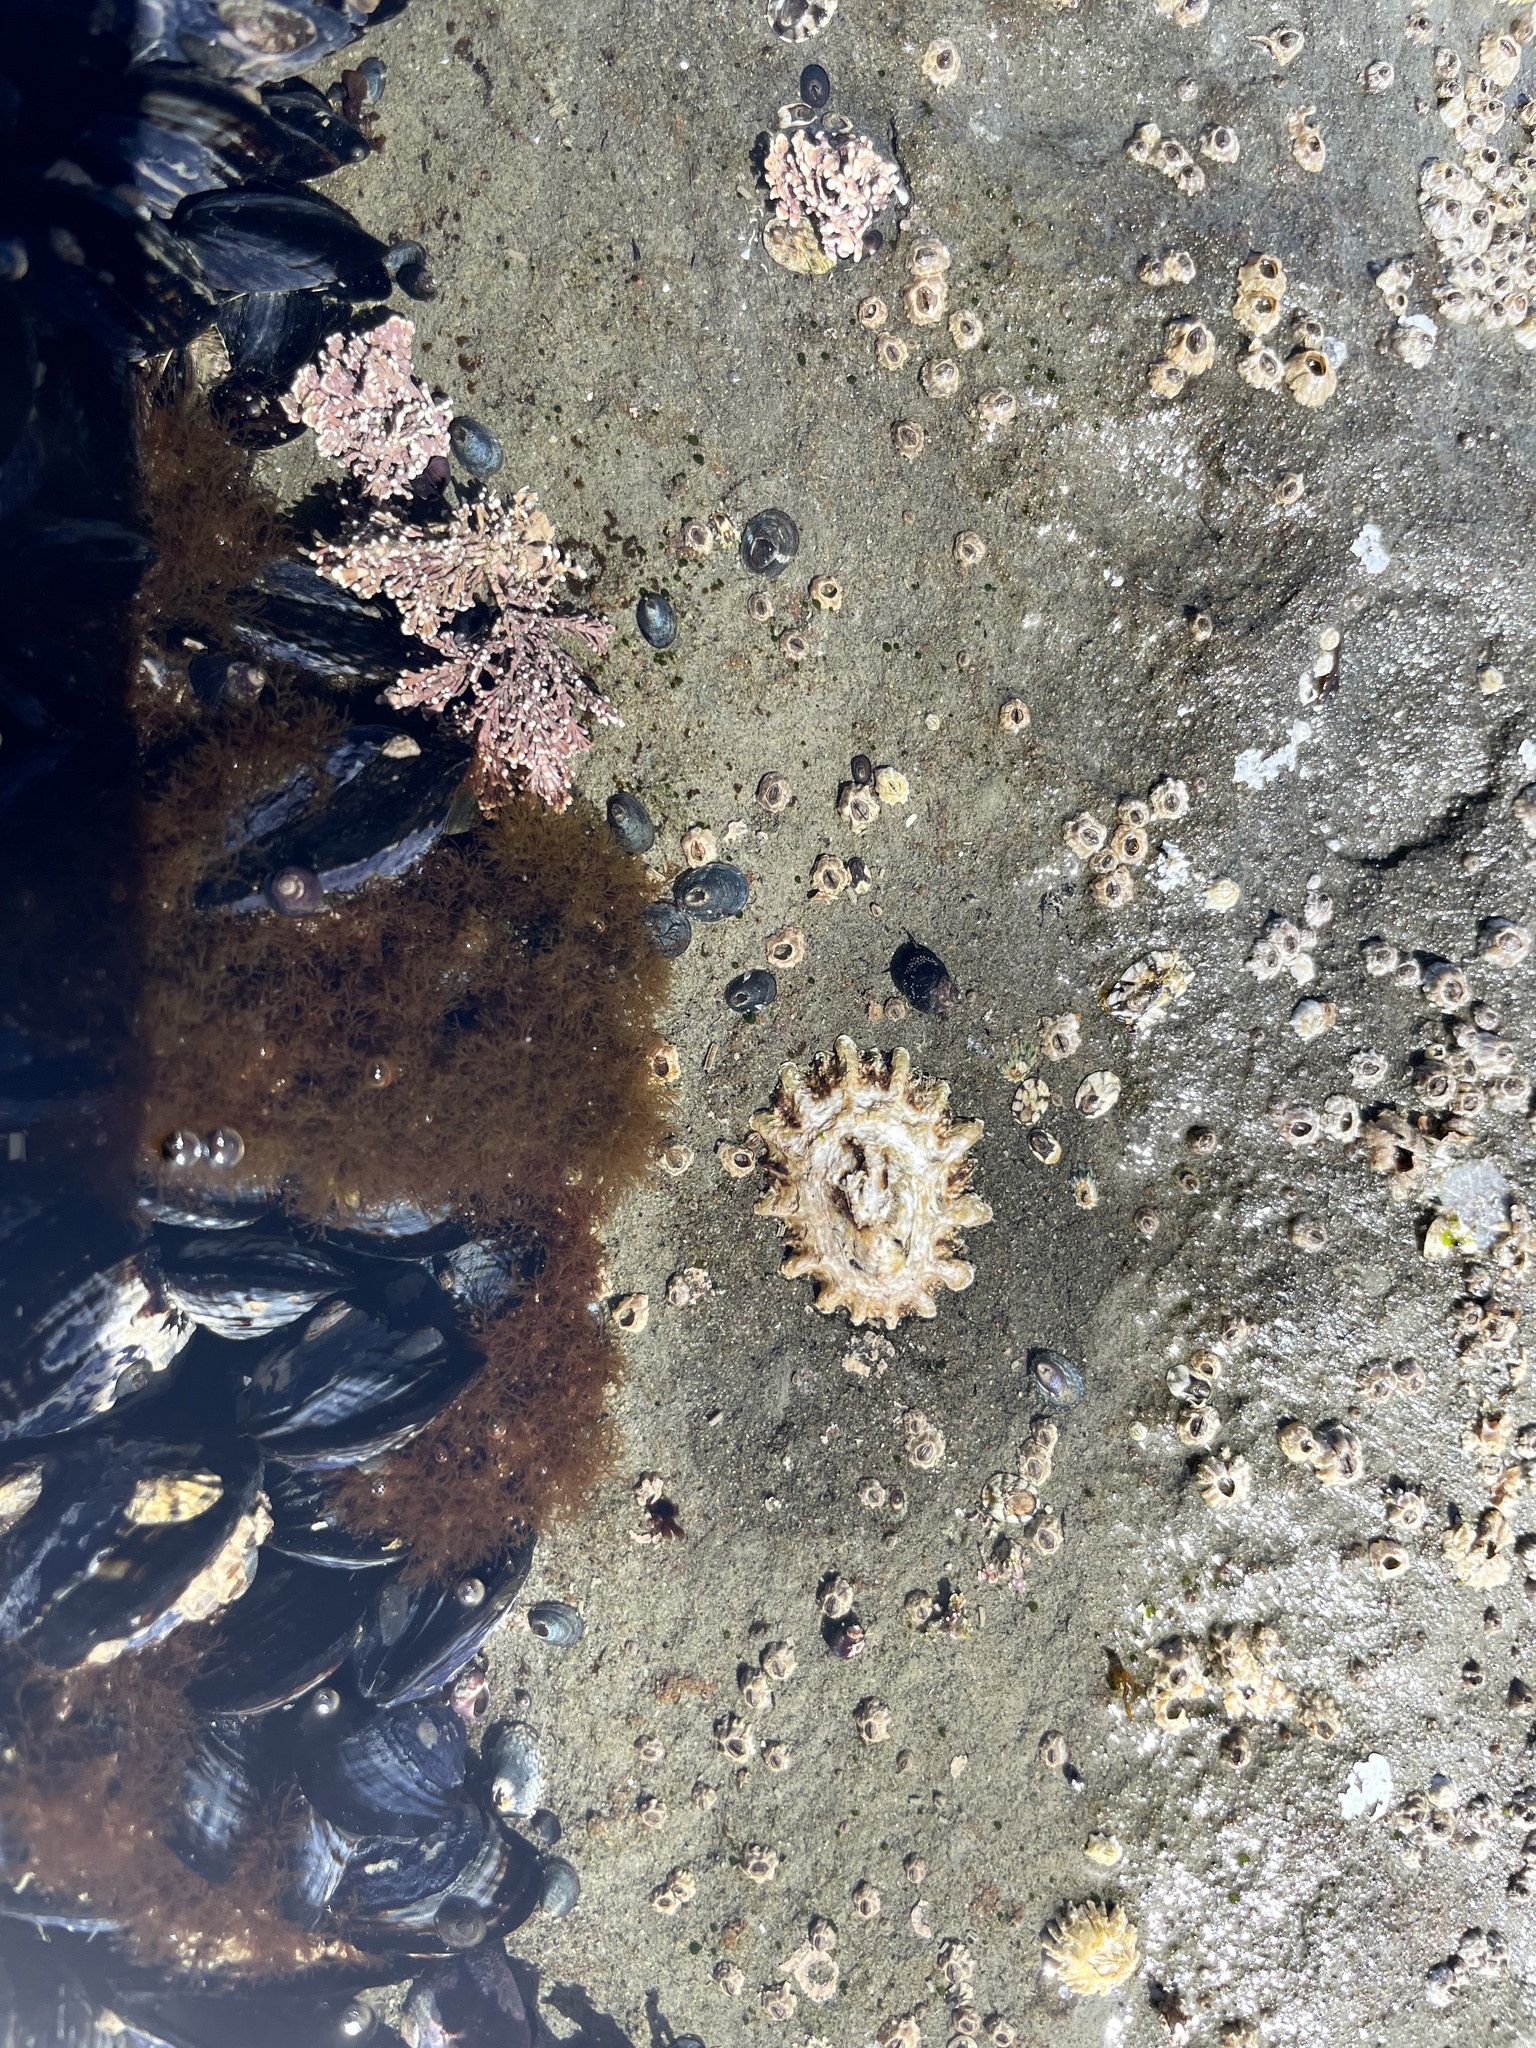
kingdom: Animalia
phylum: Mollusca
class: Gastropoda
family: Lottiidae
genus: Lottia
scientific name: Lottia scabra
